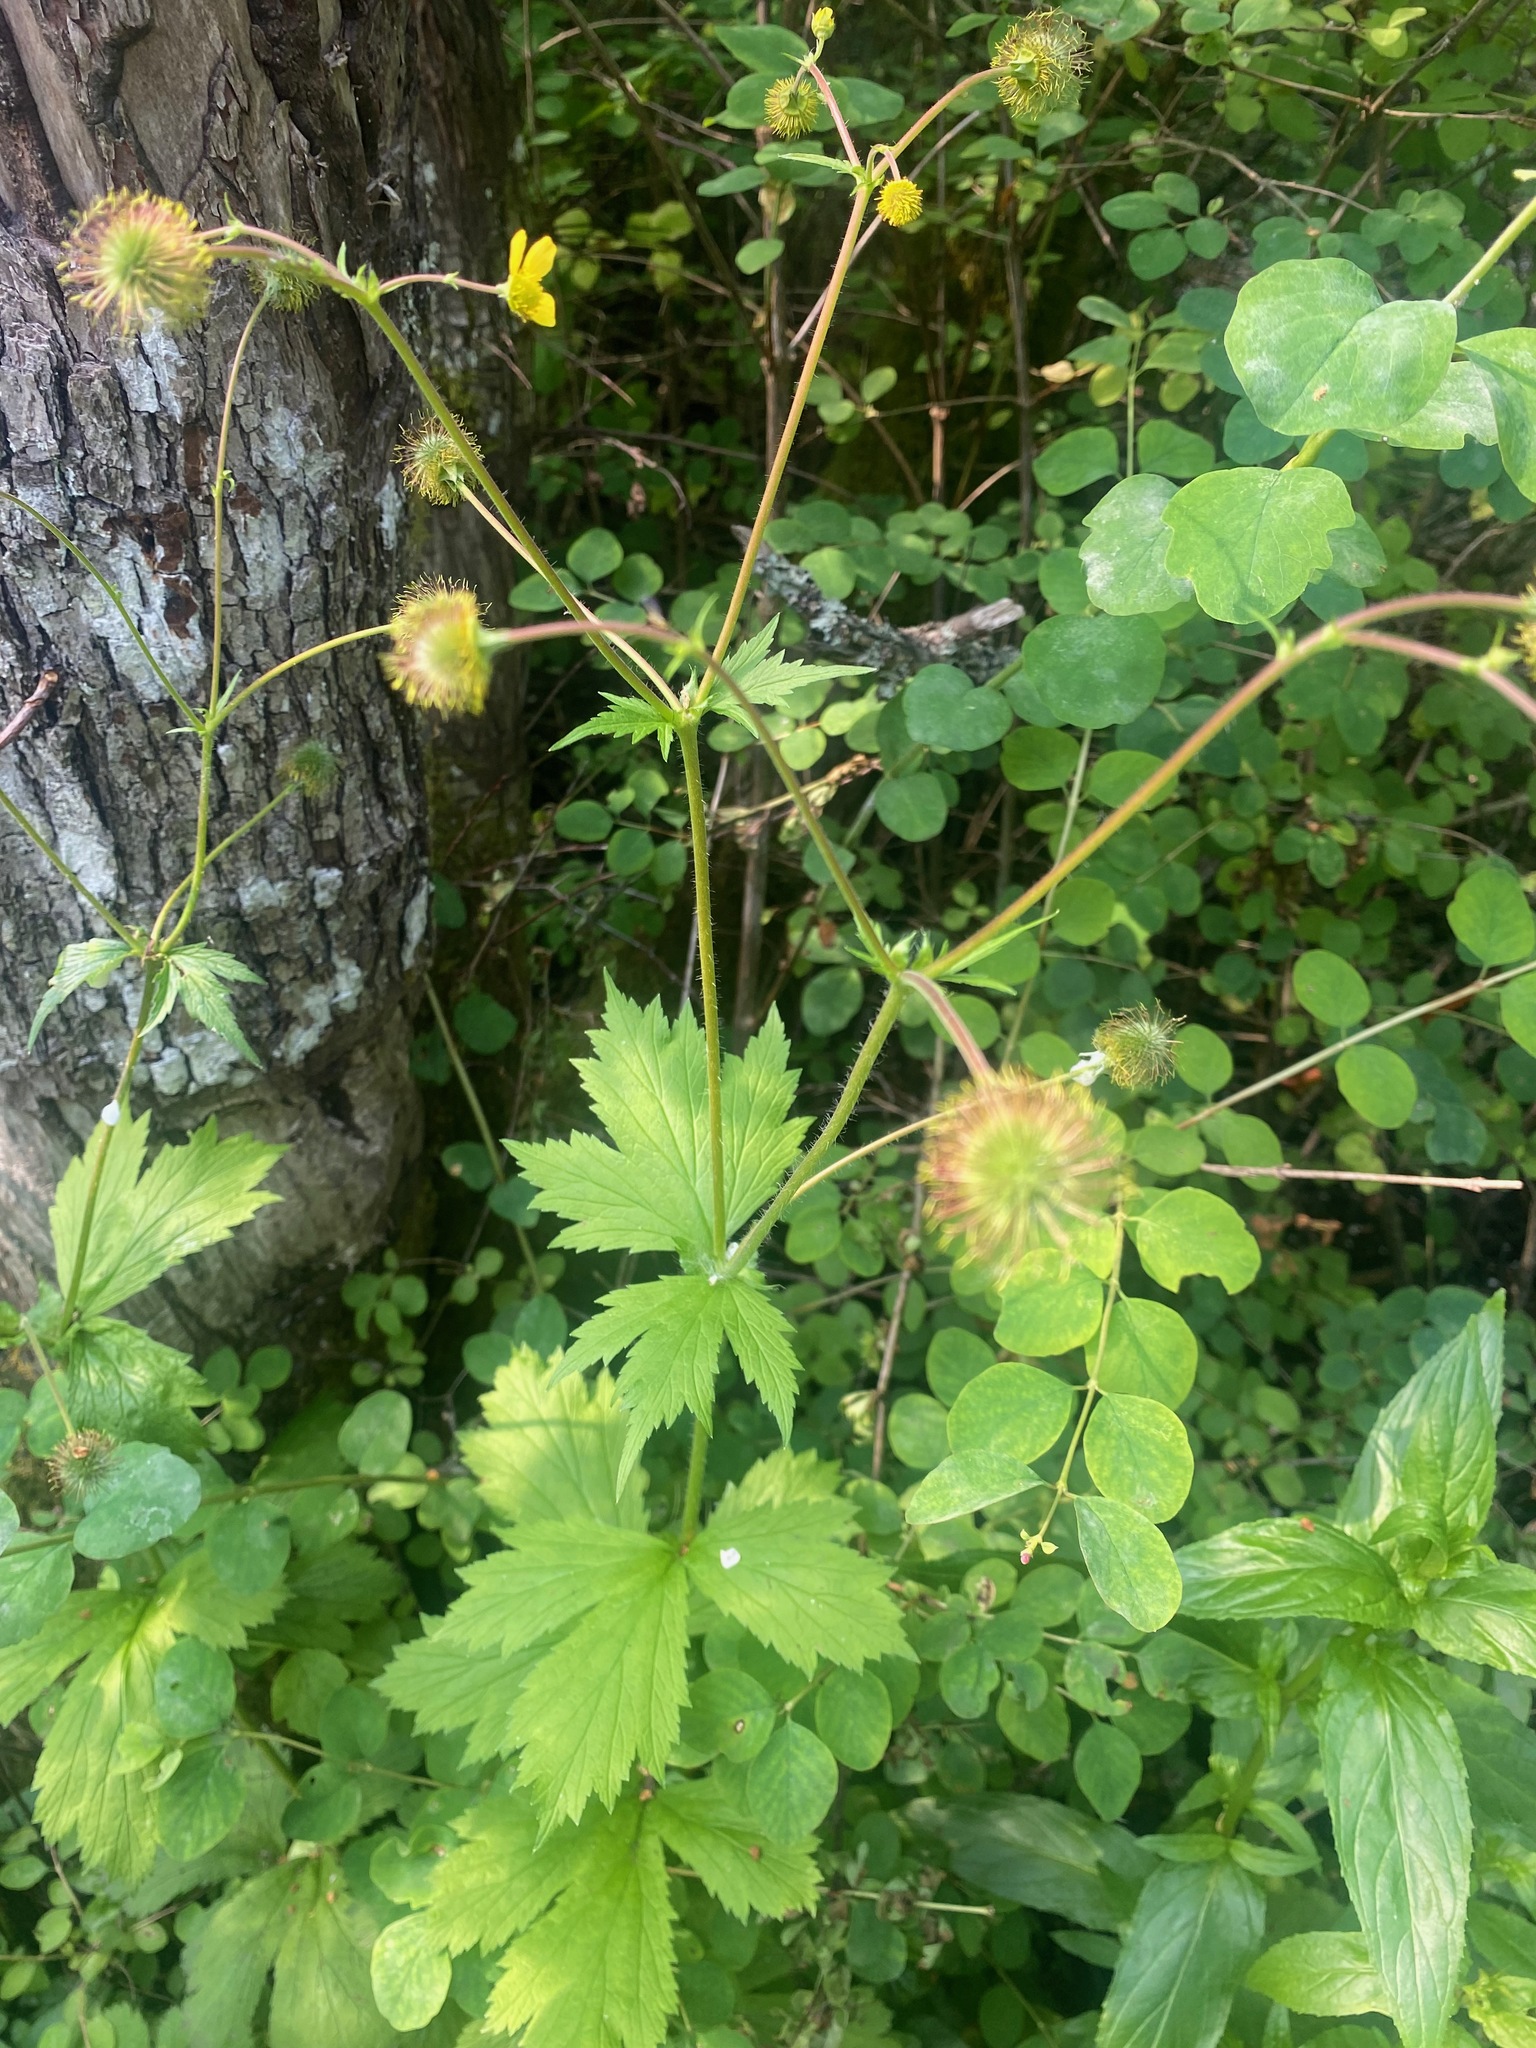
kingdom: Plantae
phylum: Tracheophyta
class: Magnoliopsida
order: Rosales
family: Rosaceae
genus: Geum
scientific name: Geum macrophyllum
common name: Large-leaved avens
